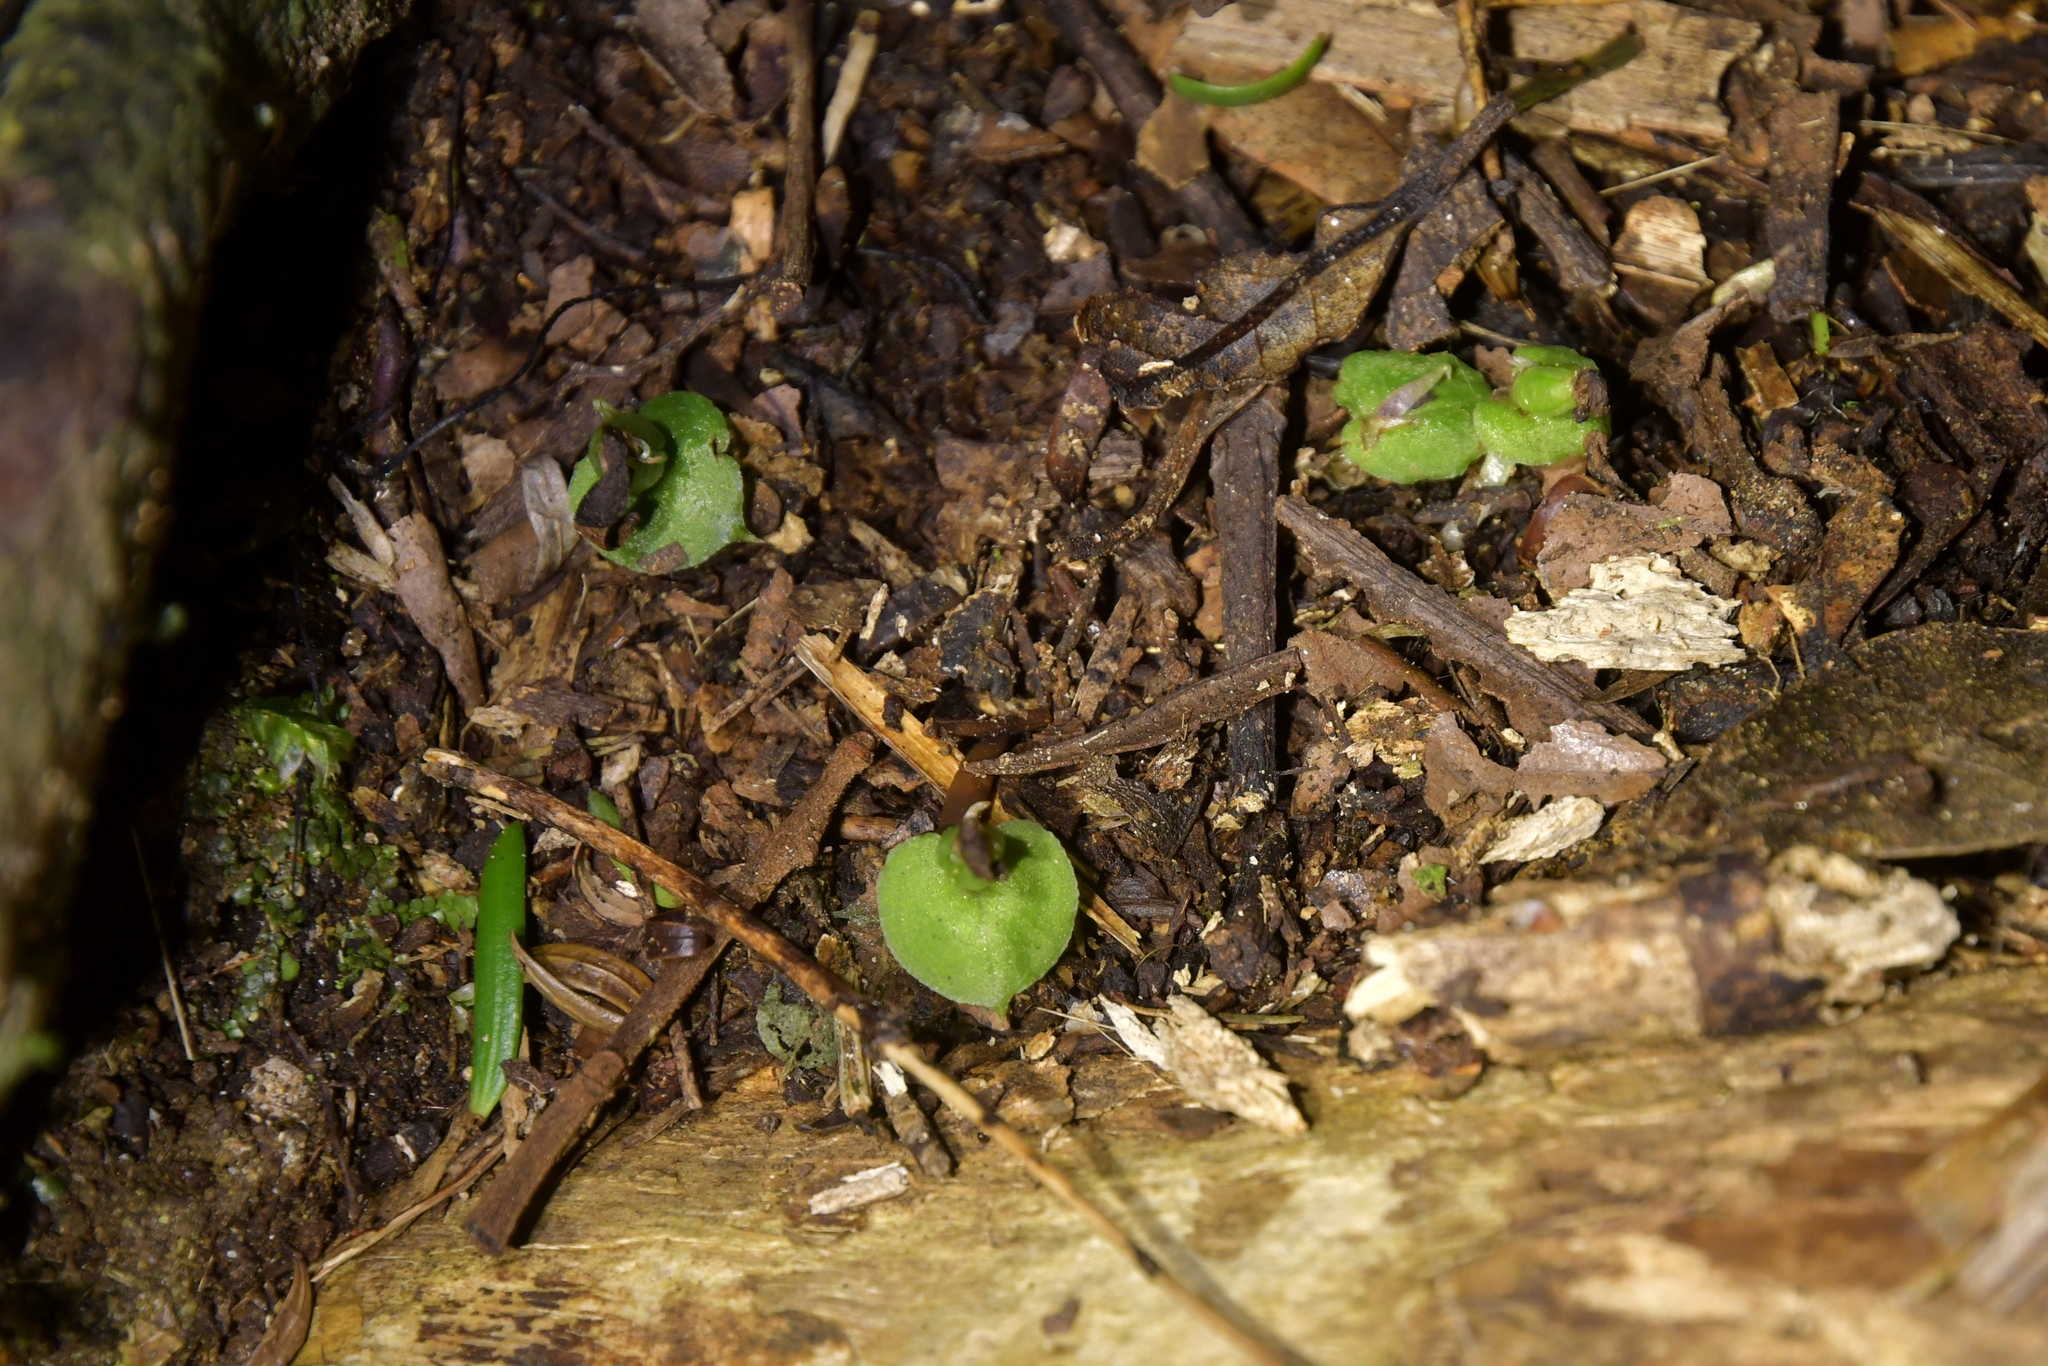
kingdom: Plantae
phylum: Tracheophyta
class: Liliopsida
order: Asparagales
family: Orchidaceae
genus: Corybas
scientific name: Corybas cheesemanii
